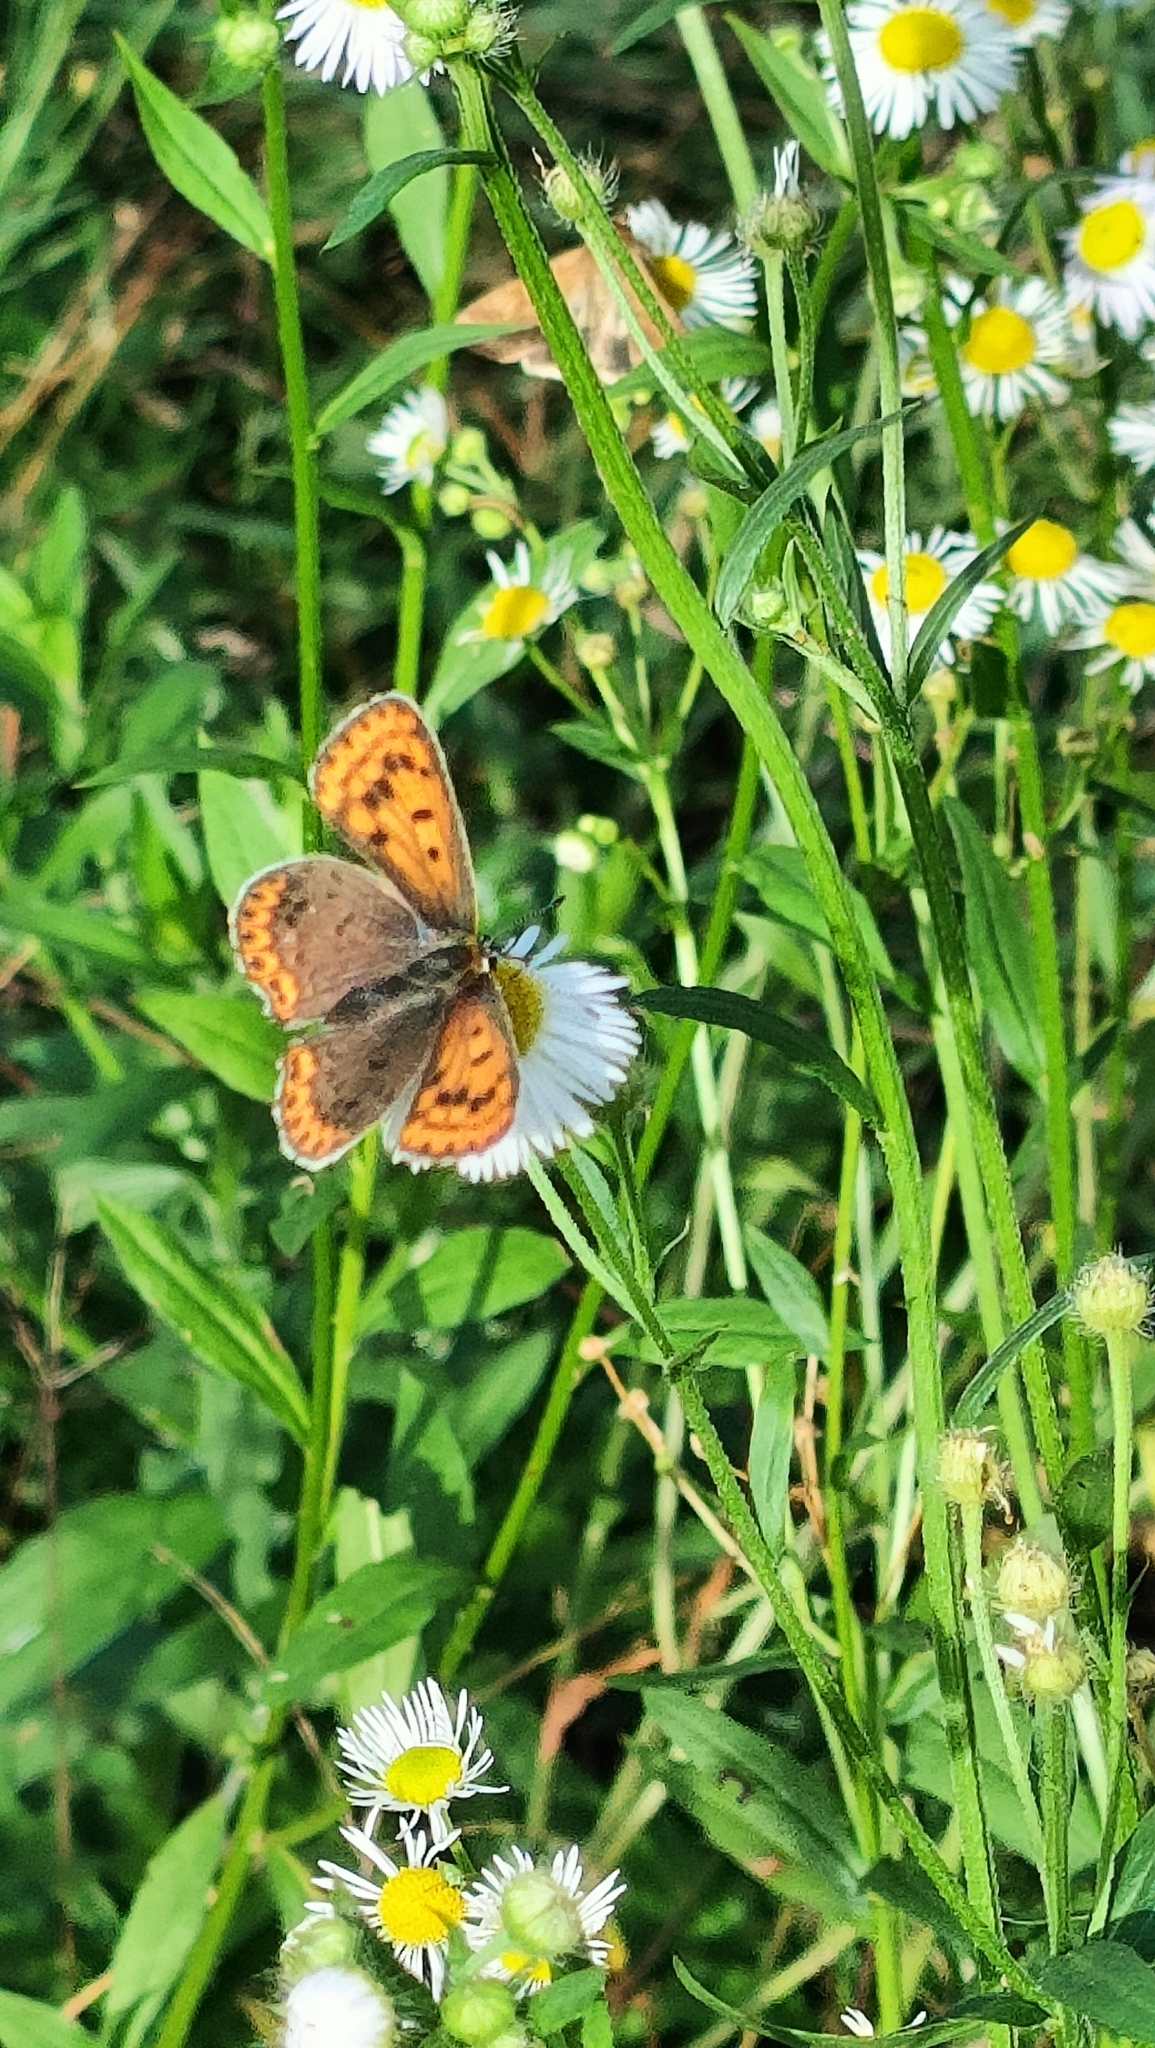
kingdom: Animalia
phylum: Arthropoda
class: Insecta
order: Lepidoptera
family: Lycaenidae
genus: Loweia
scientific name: Loweia tityrus
